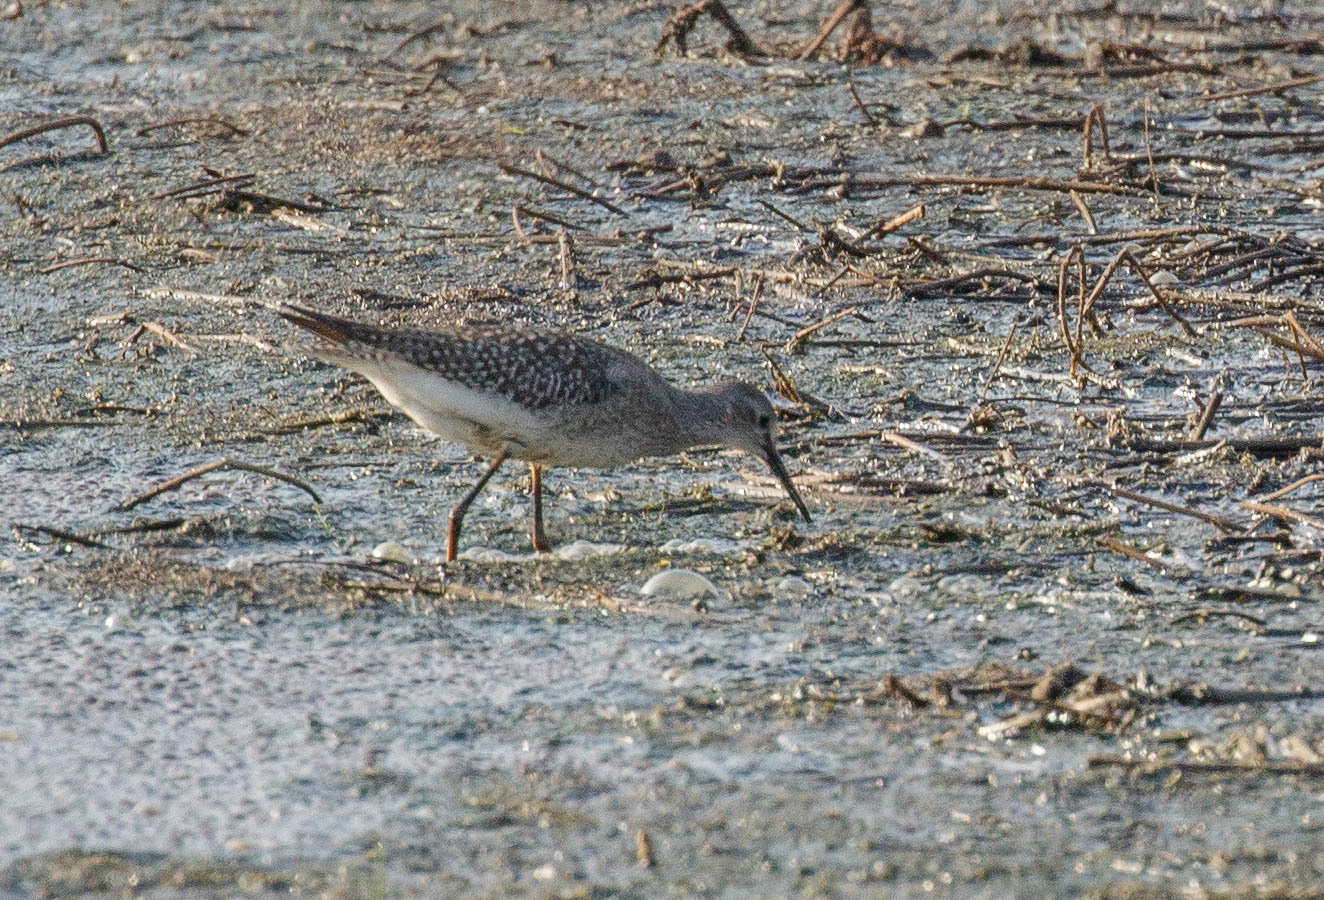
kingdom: Animalia
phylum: Chordata
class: Aves
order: Charadriiformes
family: Scolopacidae
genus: Tringa
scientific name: Tringa flavipes
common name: Lesser yellowlegs
